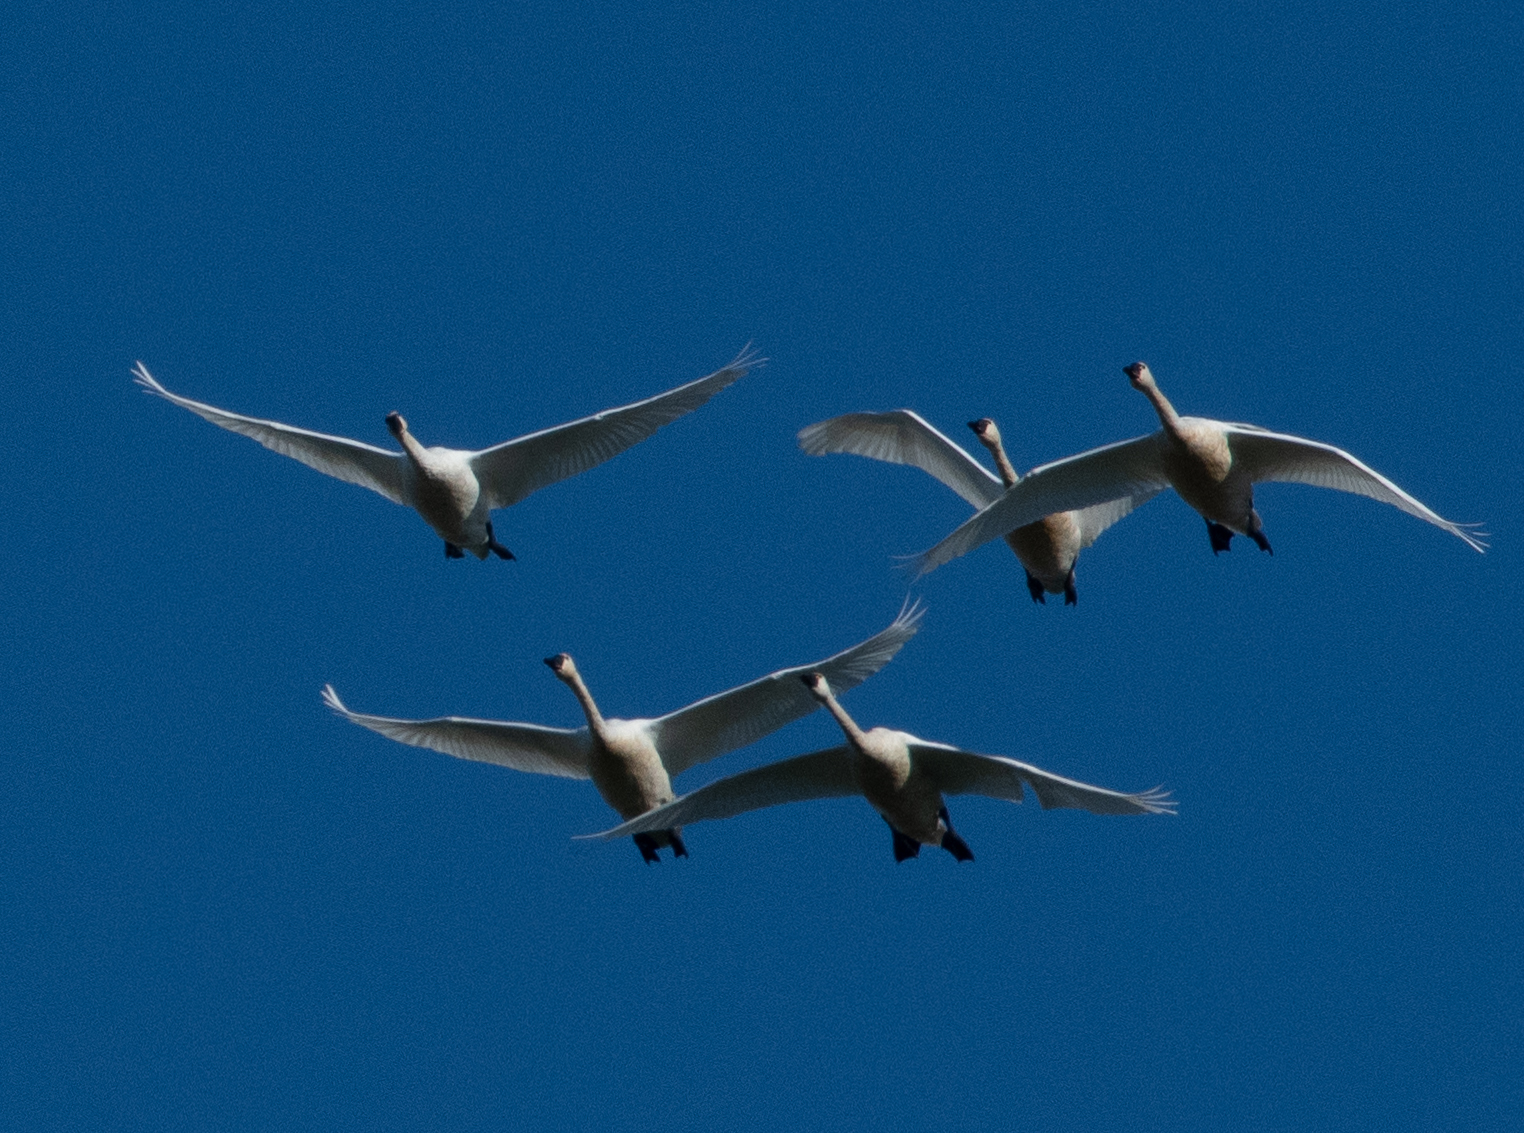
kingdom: Animalia
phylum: Chordata
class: Aves
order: Anseriformes
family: Anatidae
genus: Cygnus
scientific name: Cygnus columbianus
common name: Tundra swan
